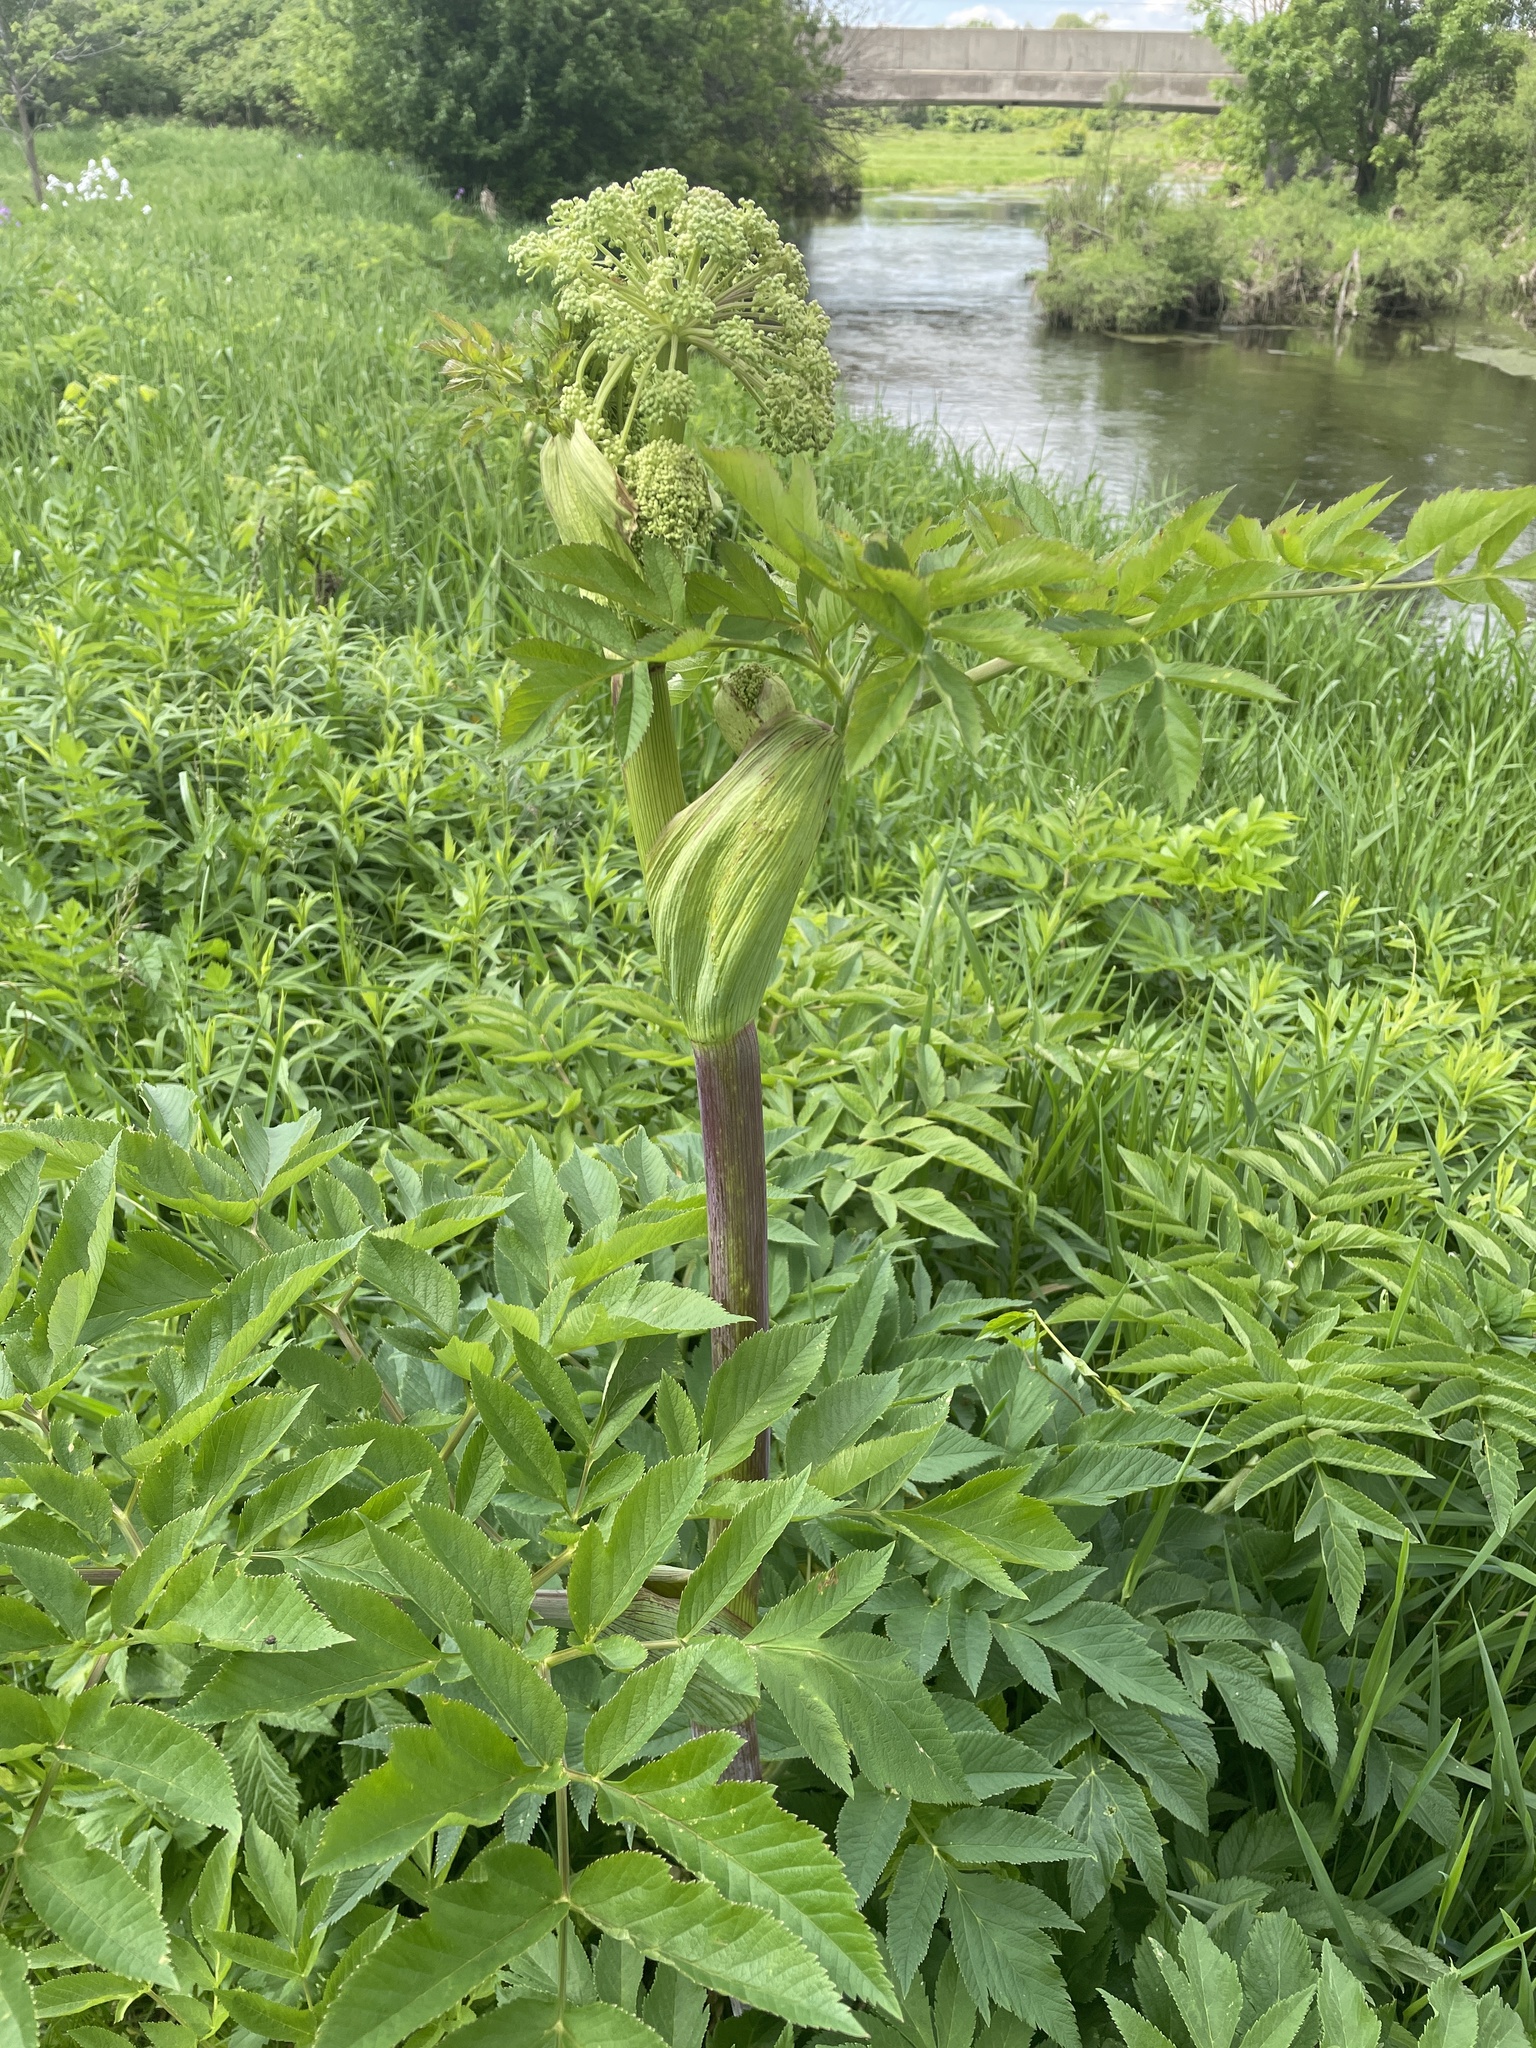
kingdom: Plantae
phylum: Tracheophyta
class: Magnoliopsida
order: Apiales
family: Apiaceae
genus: Angelica
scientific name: Angelica atropurpurea
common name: Great angelica
